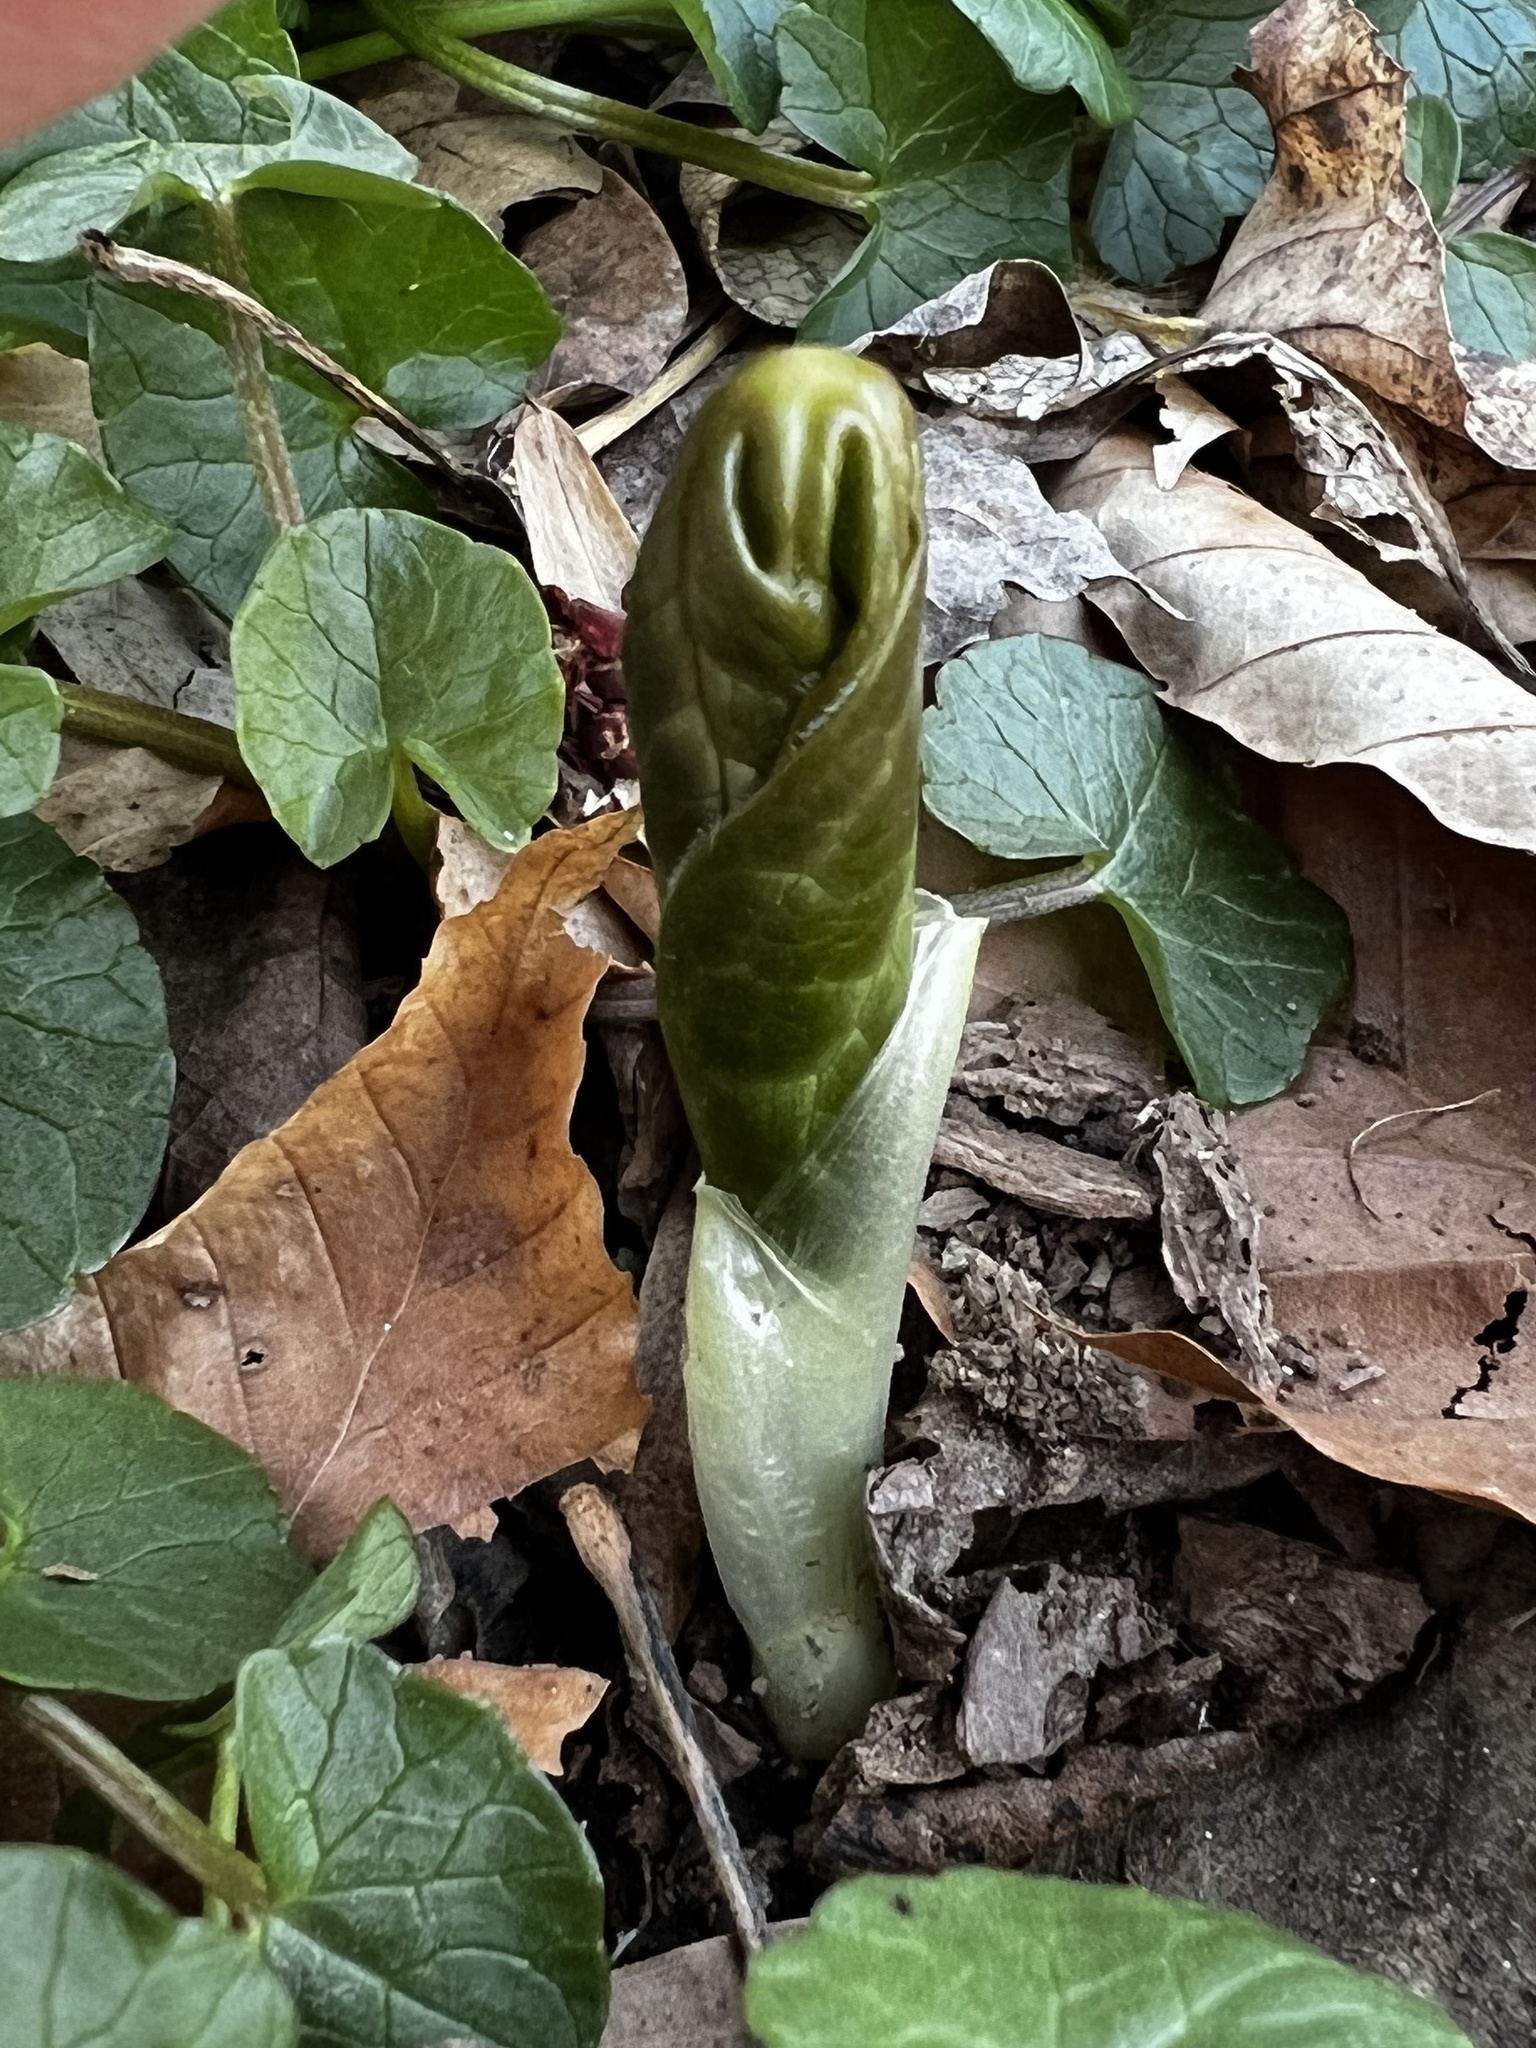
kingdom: Plantae
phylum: Tracheophyta
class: Magnoliopsida
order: Ranunculales
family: Berberidaceae
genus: Podophyllum
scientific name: Podophyllum peltatum
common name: Wild mandrake
